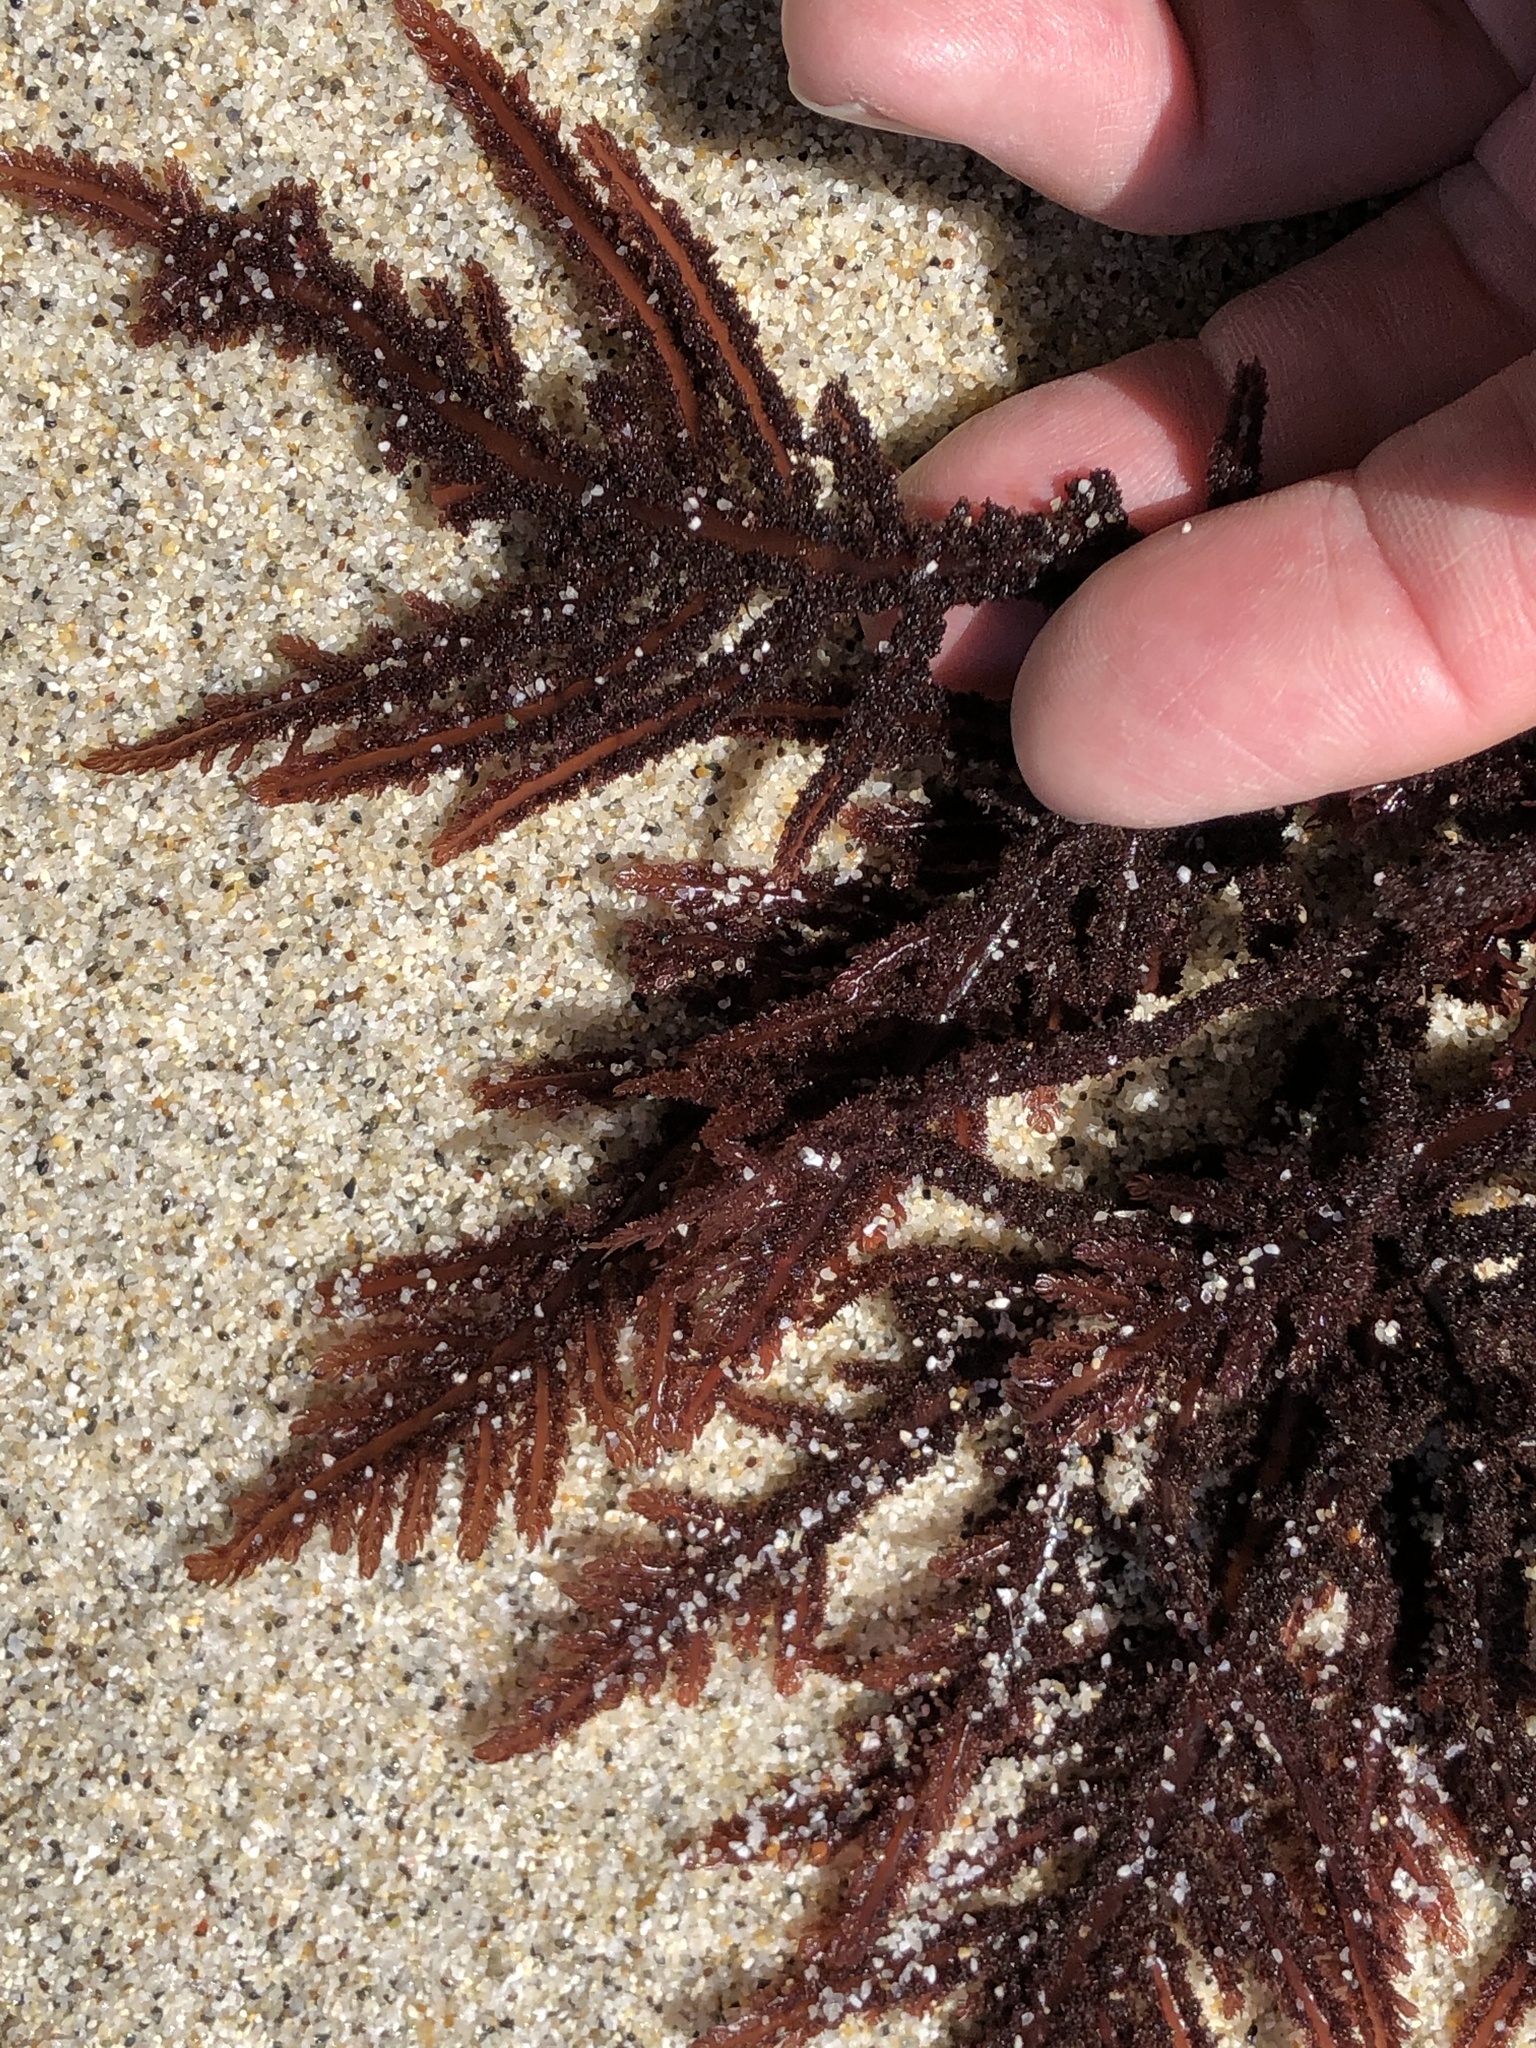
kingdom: Plantae
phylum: Rhodophyta
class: Florideophyceae
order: Ceramiales
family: Wrangeliaceae
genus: Neoptilota
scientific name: Neoptilota densa
